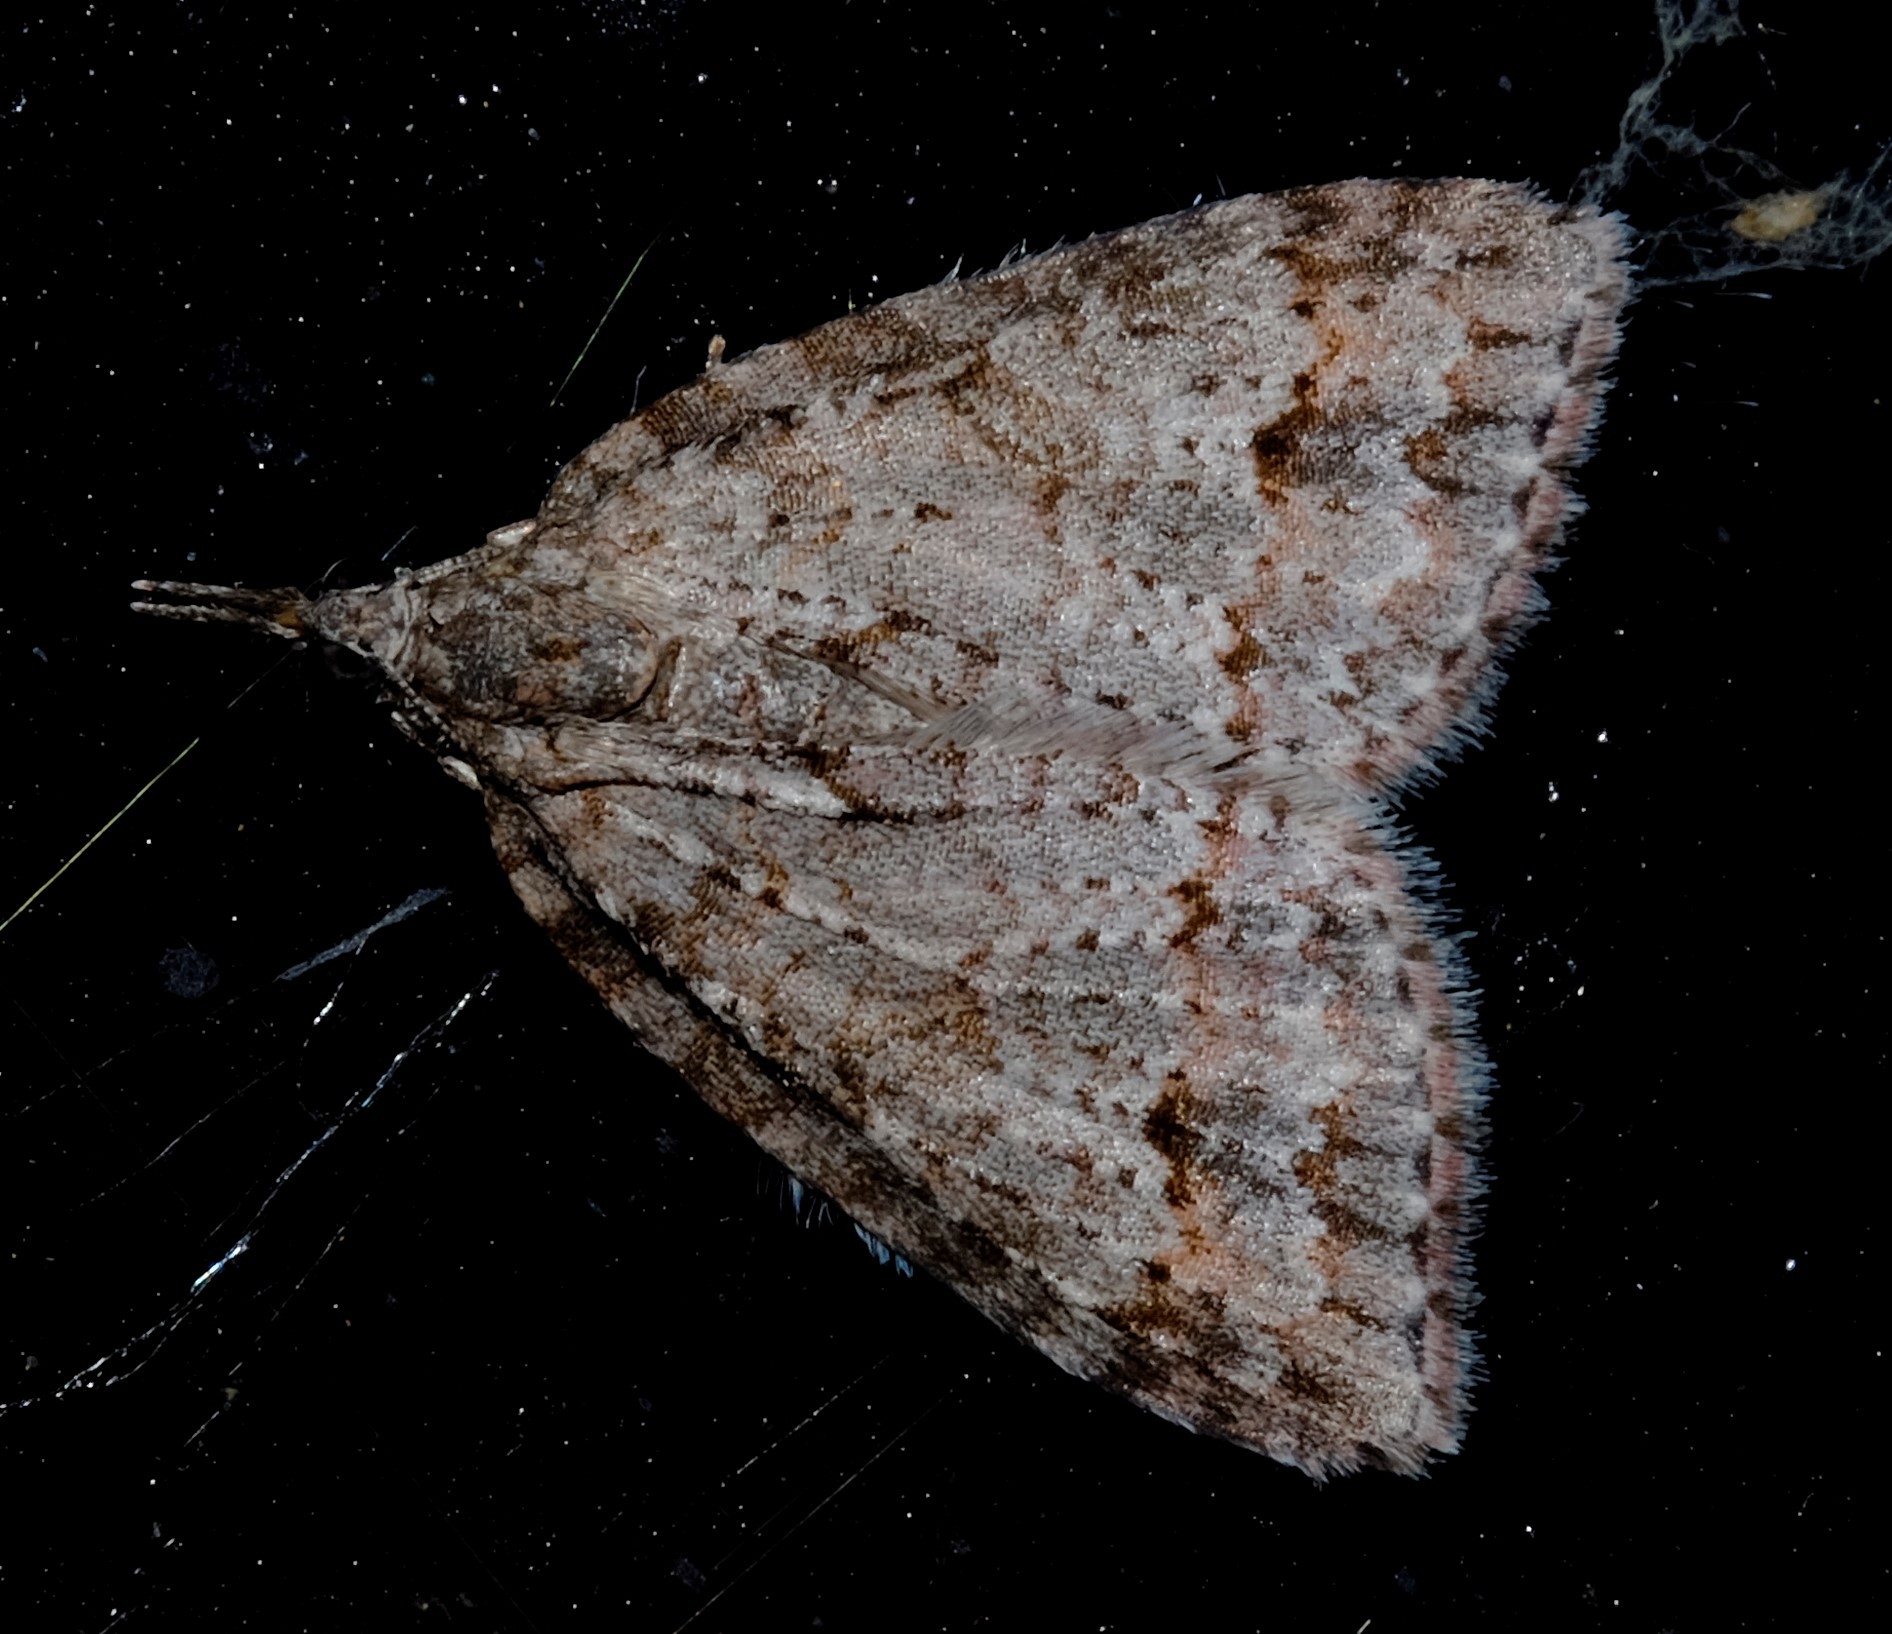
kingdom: Animalia
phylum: Arthropoda
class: Insecta
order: Lepidoptera
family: Geometridae
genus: Microdes
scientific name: Microdes villosata
